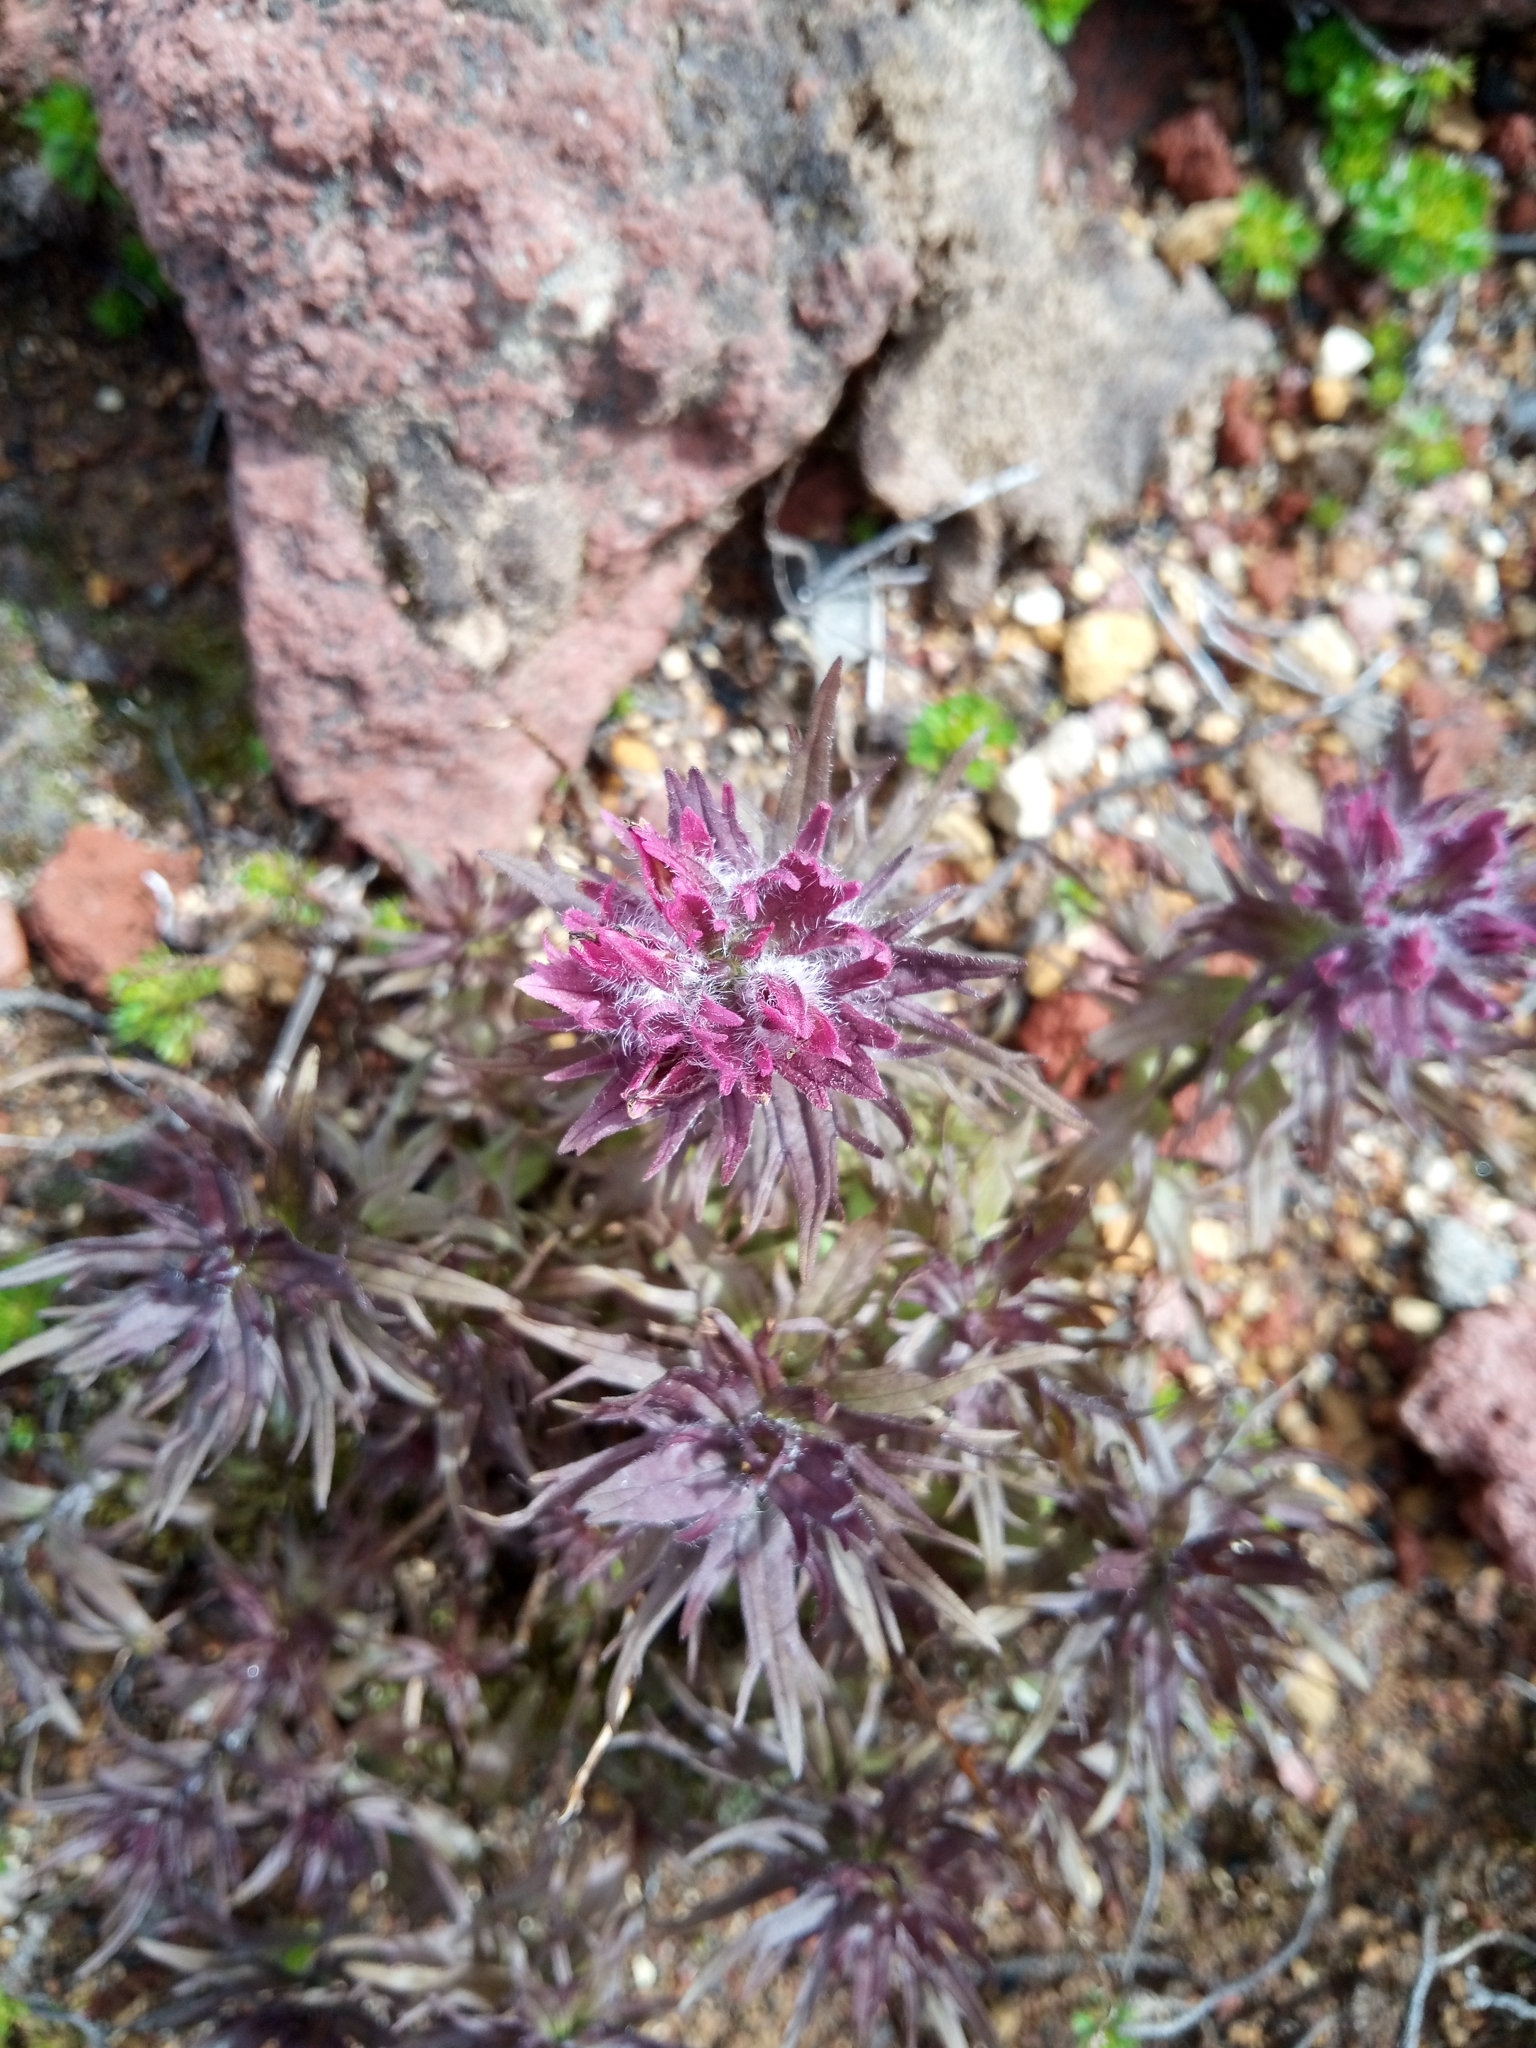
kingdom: Plantae
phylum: Tracheophyta
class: Magnoliopsida
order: Lamiales
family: Orobanchaceae
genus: Castilleja
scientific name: Castilleja parviflora
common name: Mountain paintbrush
